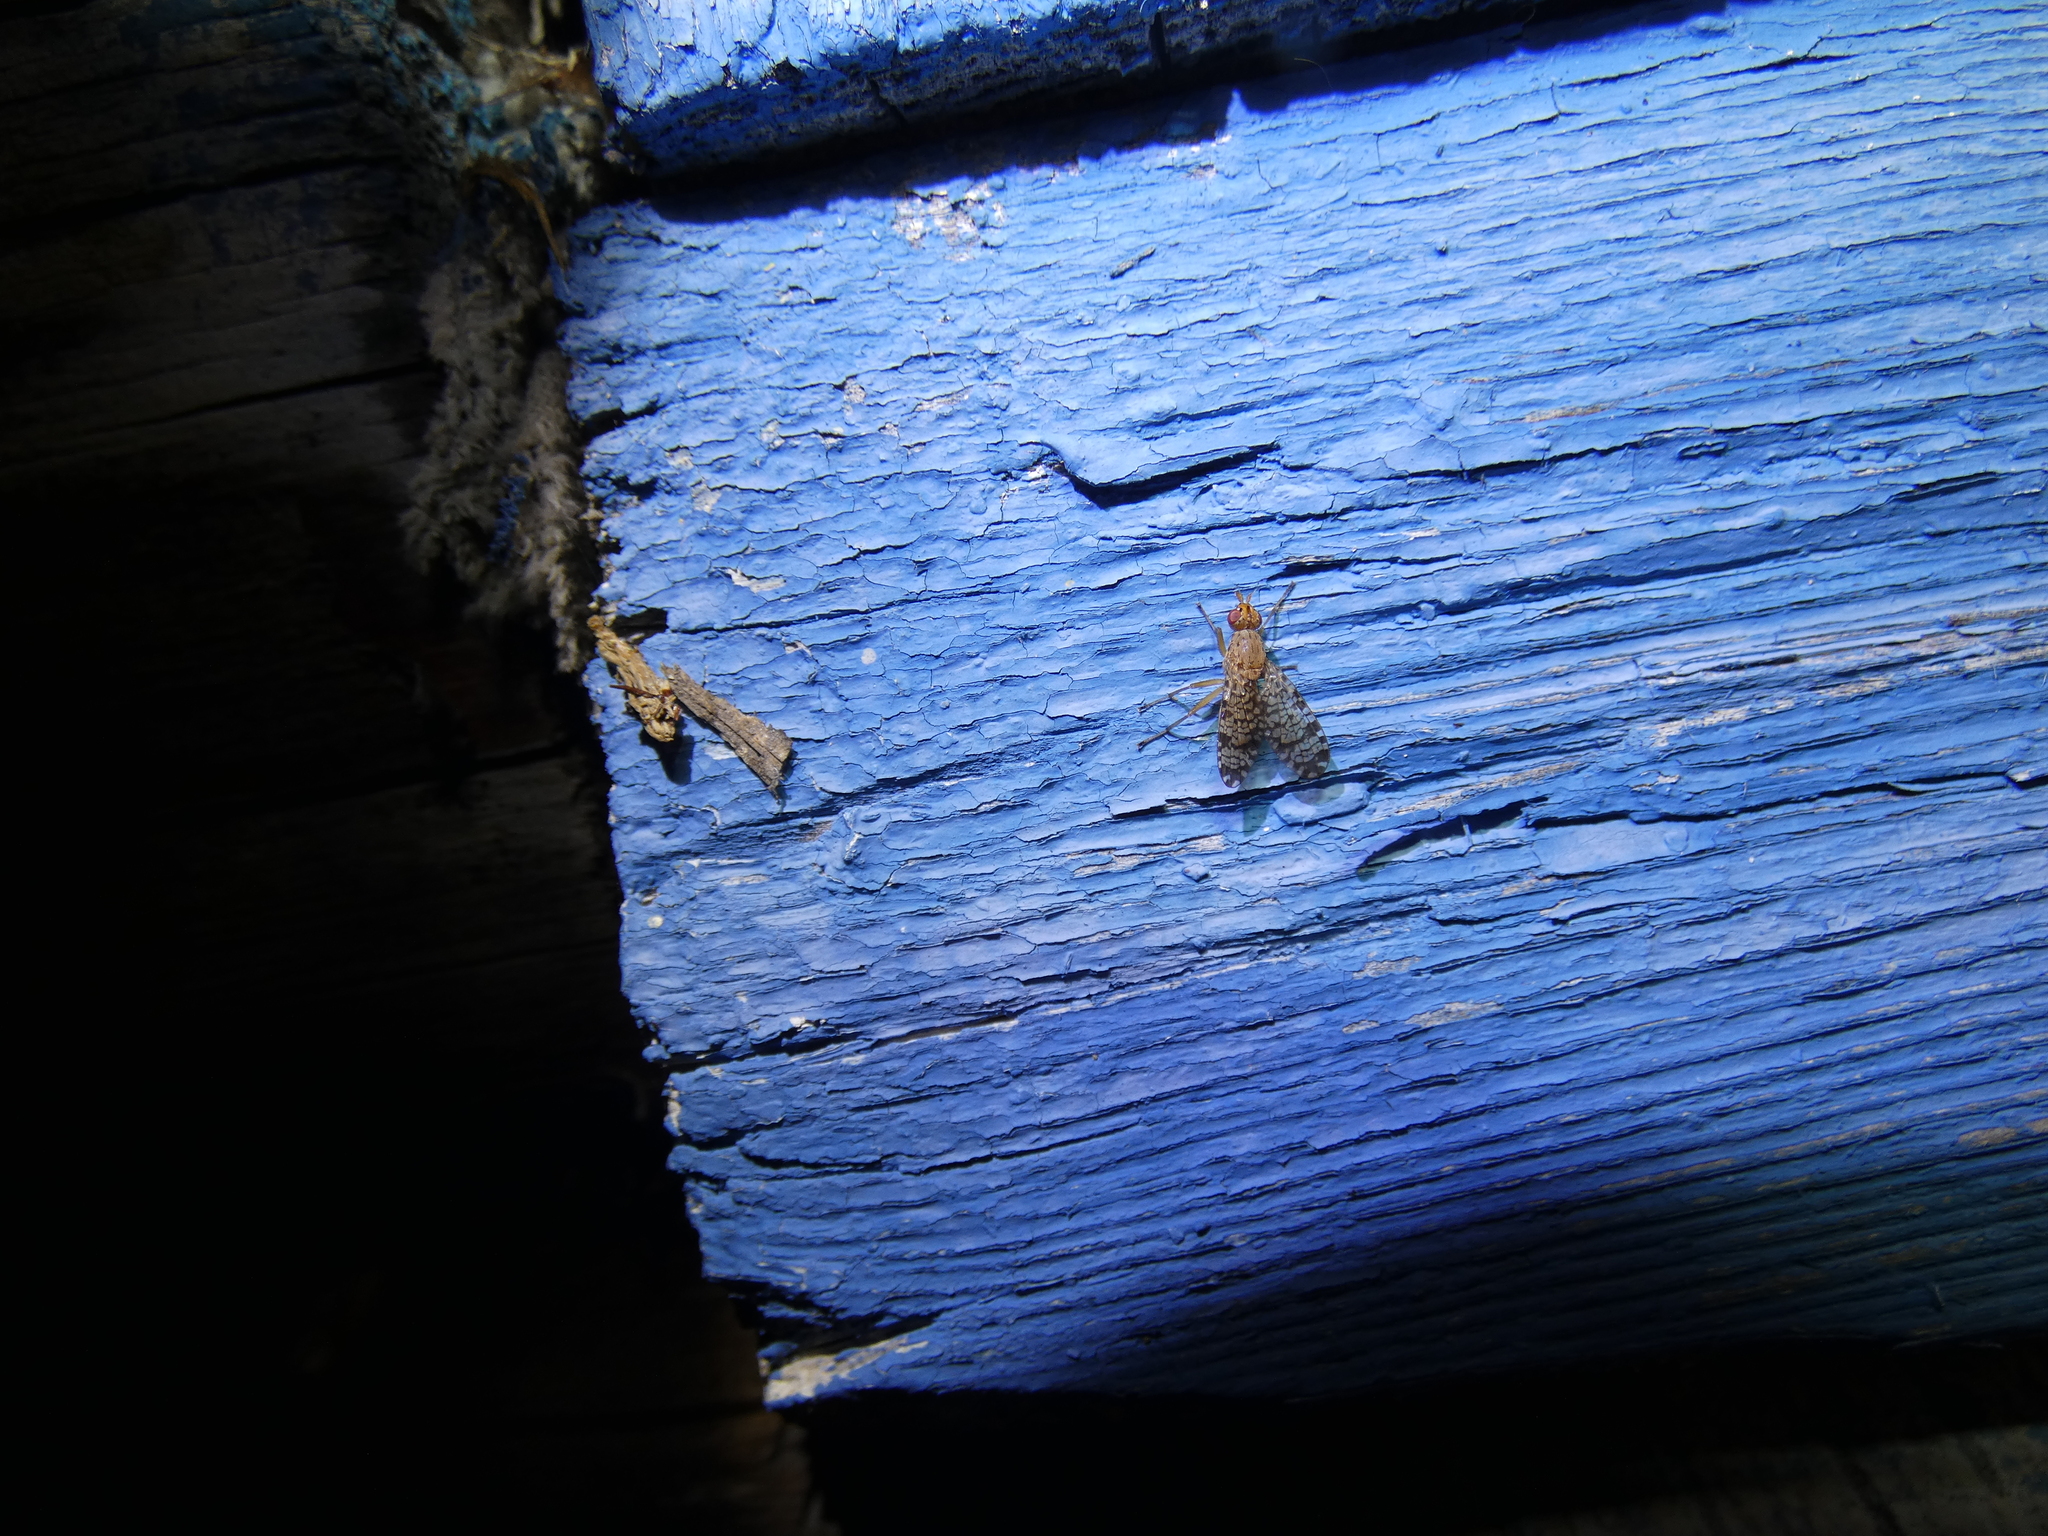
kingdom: Animalia
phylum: Arthropoda
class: Insecta
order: Diptera
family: Sciomyzidae
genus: Euthycera
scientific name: Euthycera chaerophylli
